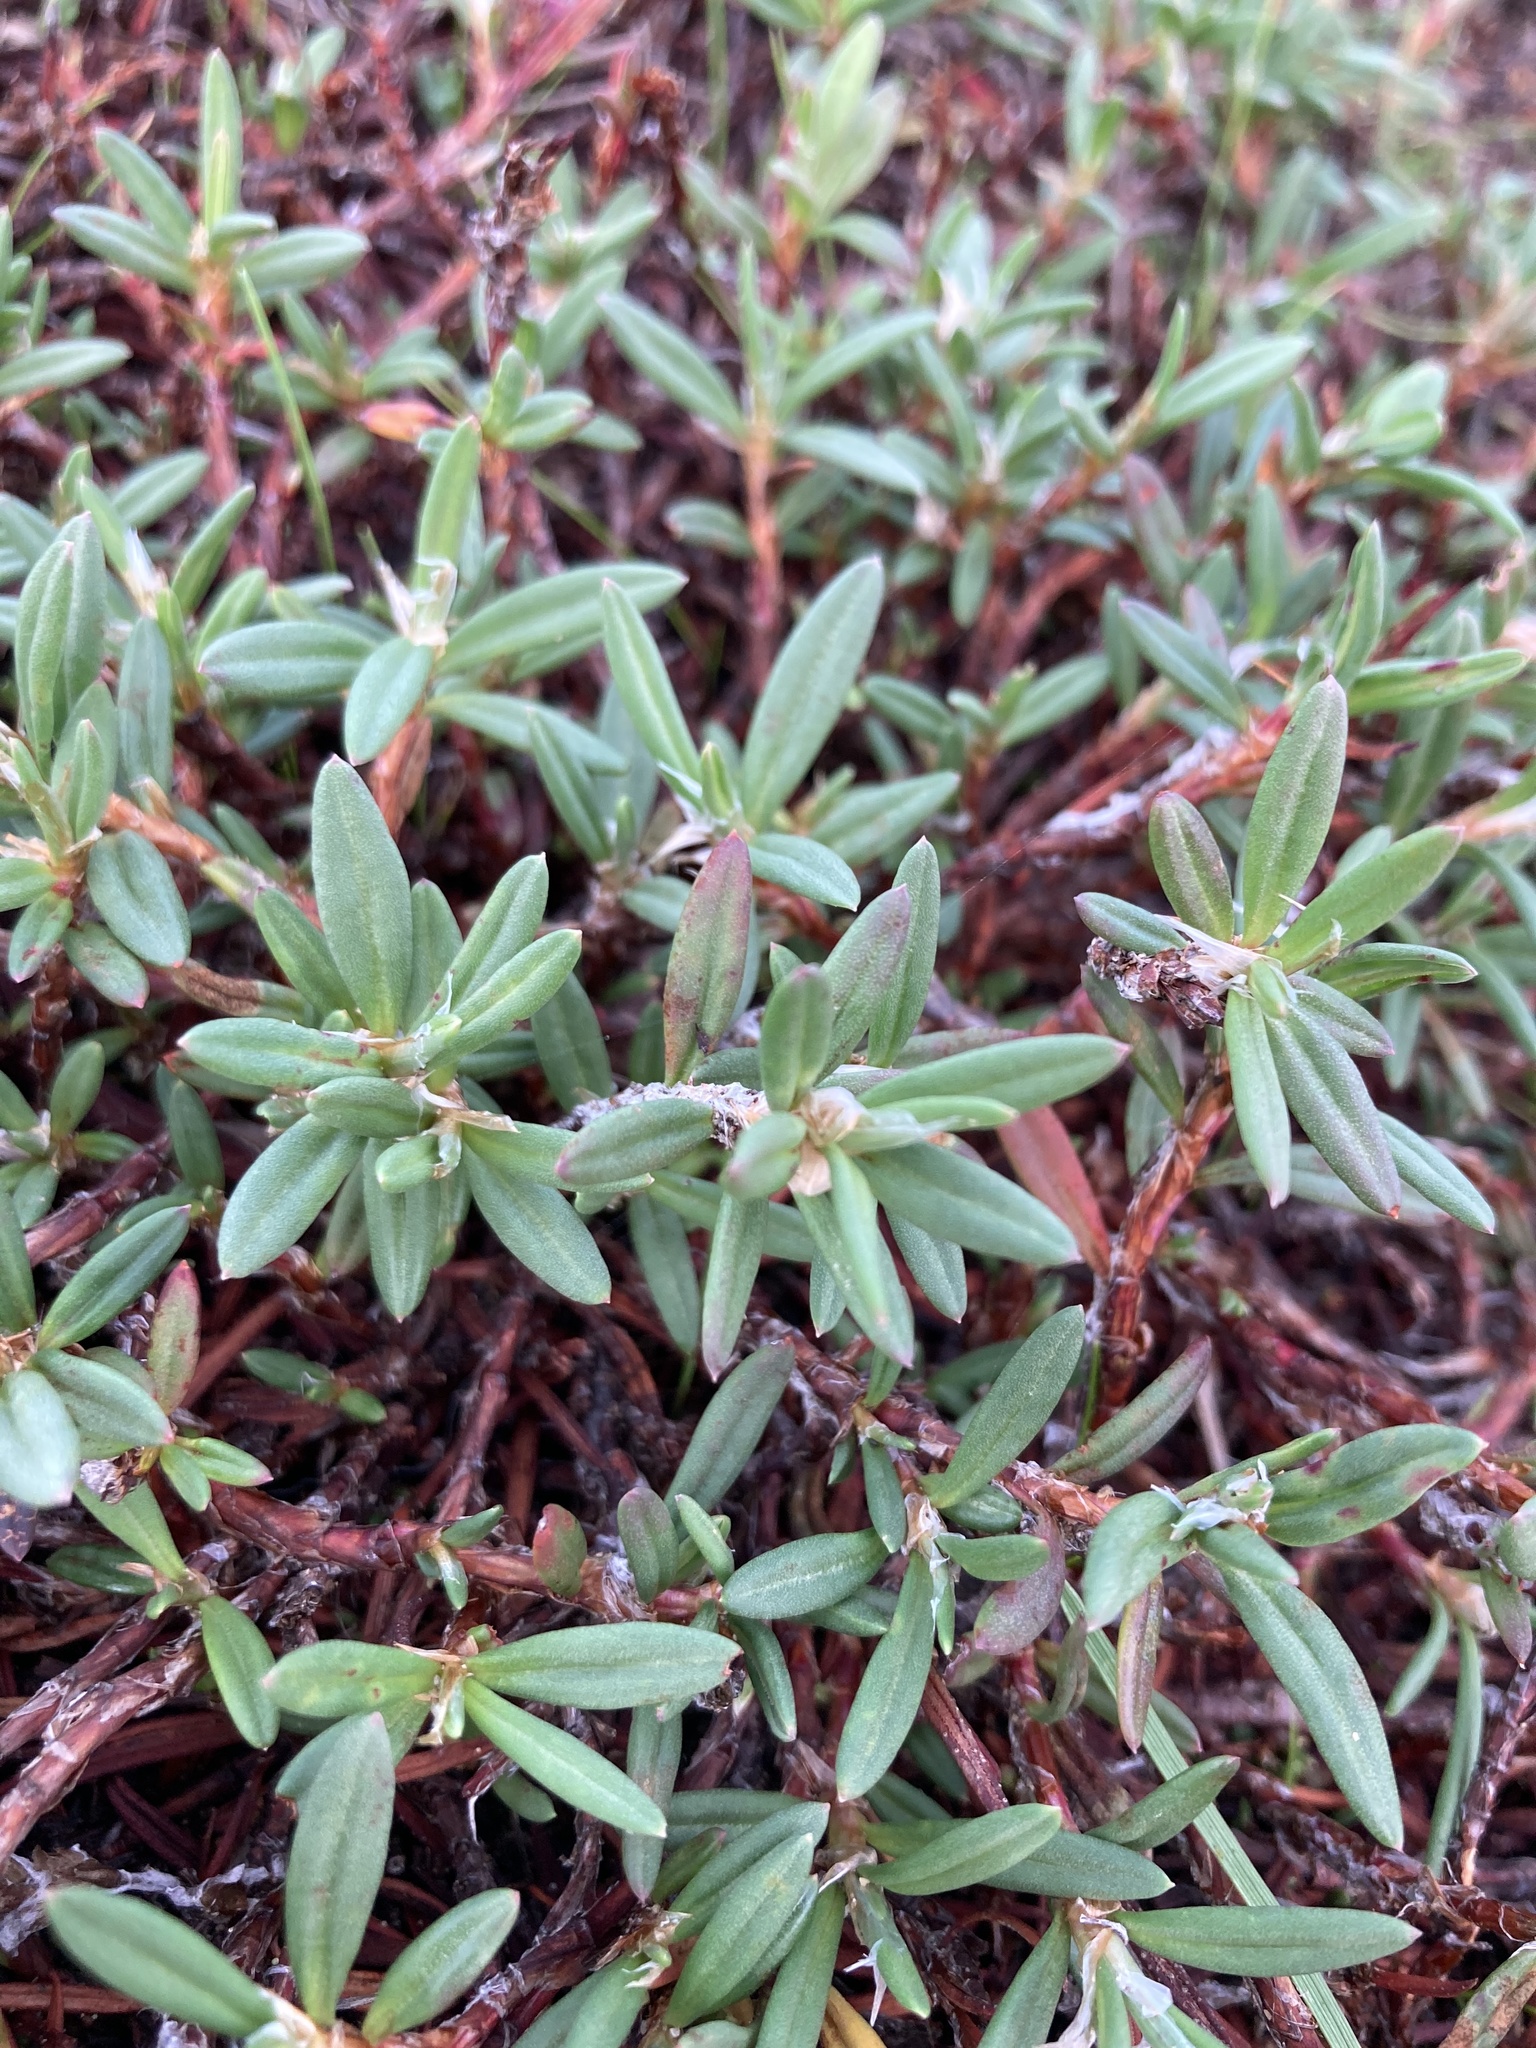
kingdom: Plantae
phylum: Tracheophyta
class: Magnoliopsida
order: Caryophyllales
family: Polygonaceae
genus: Polygonum
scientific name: Polygonum paronychia
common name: Dune knotweed
